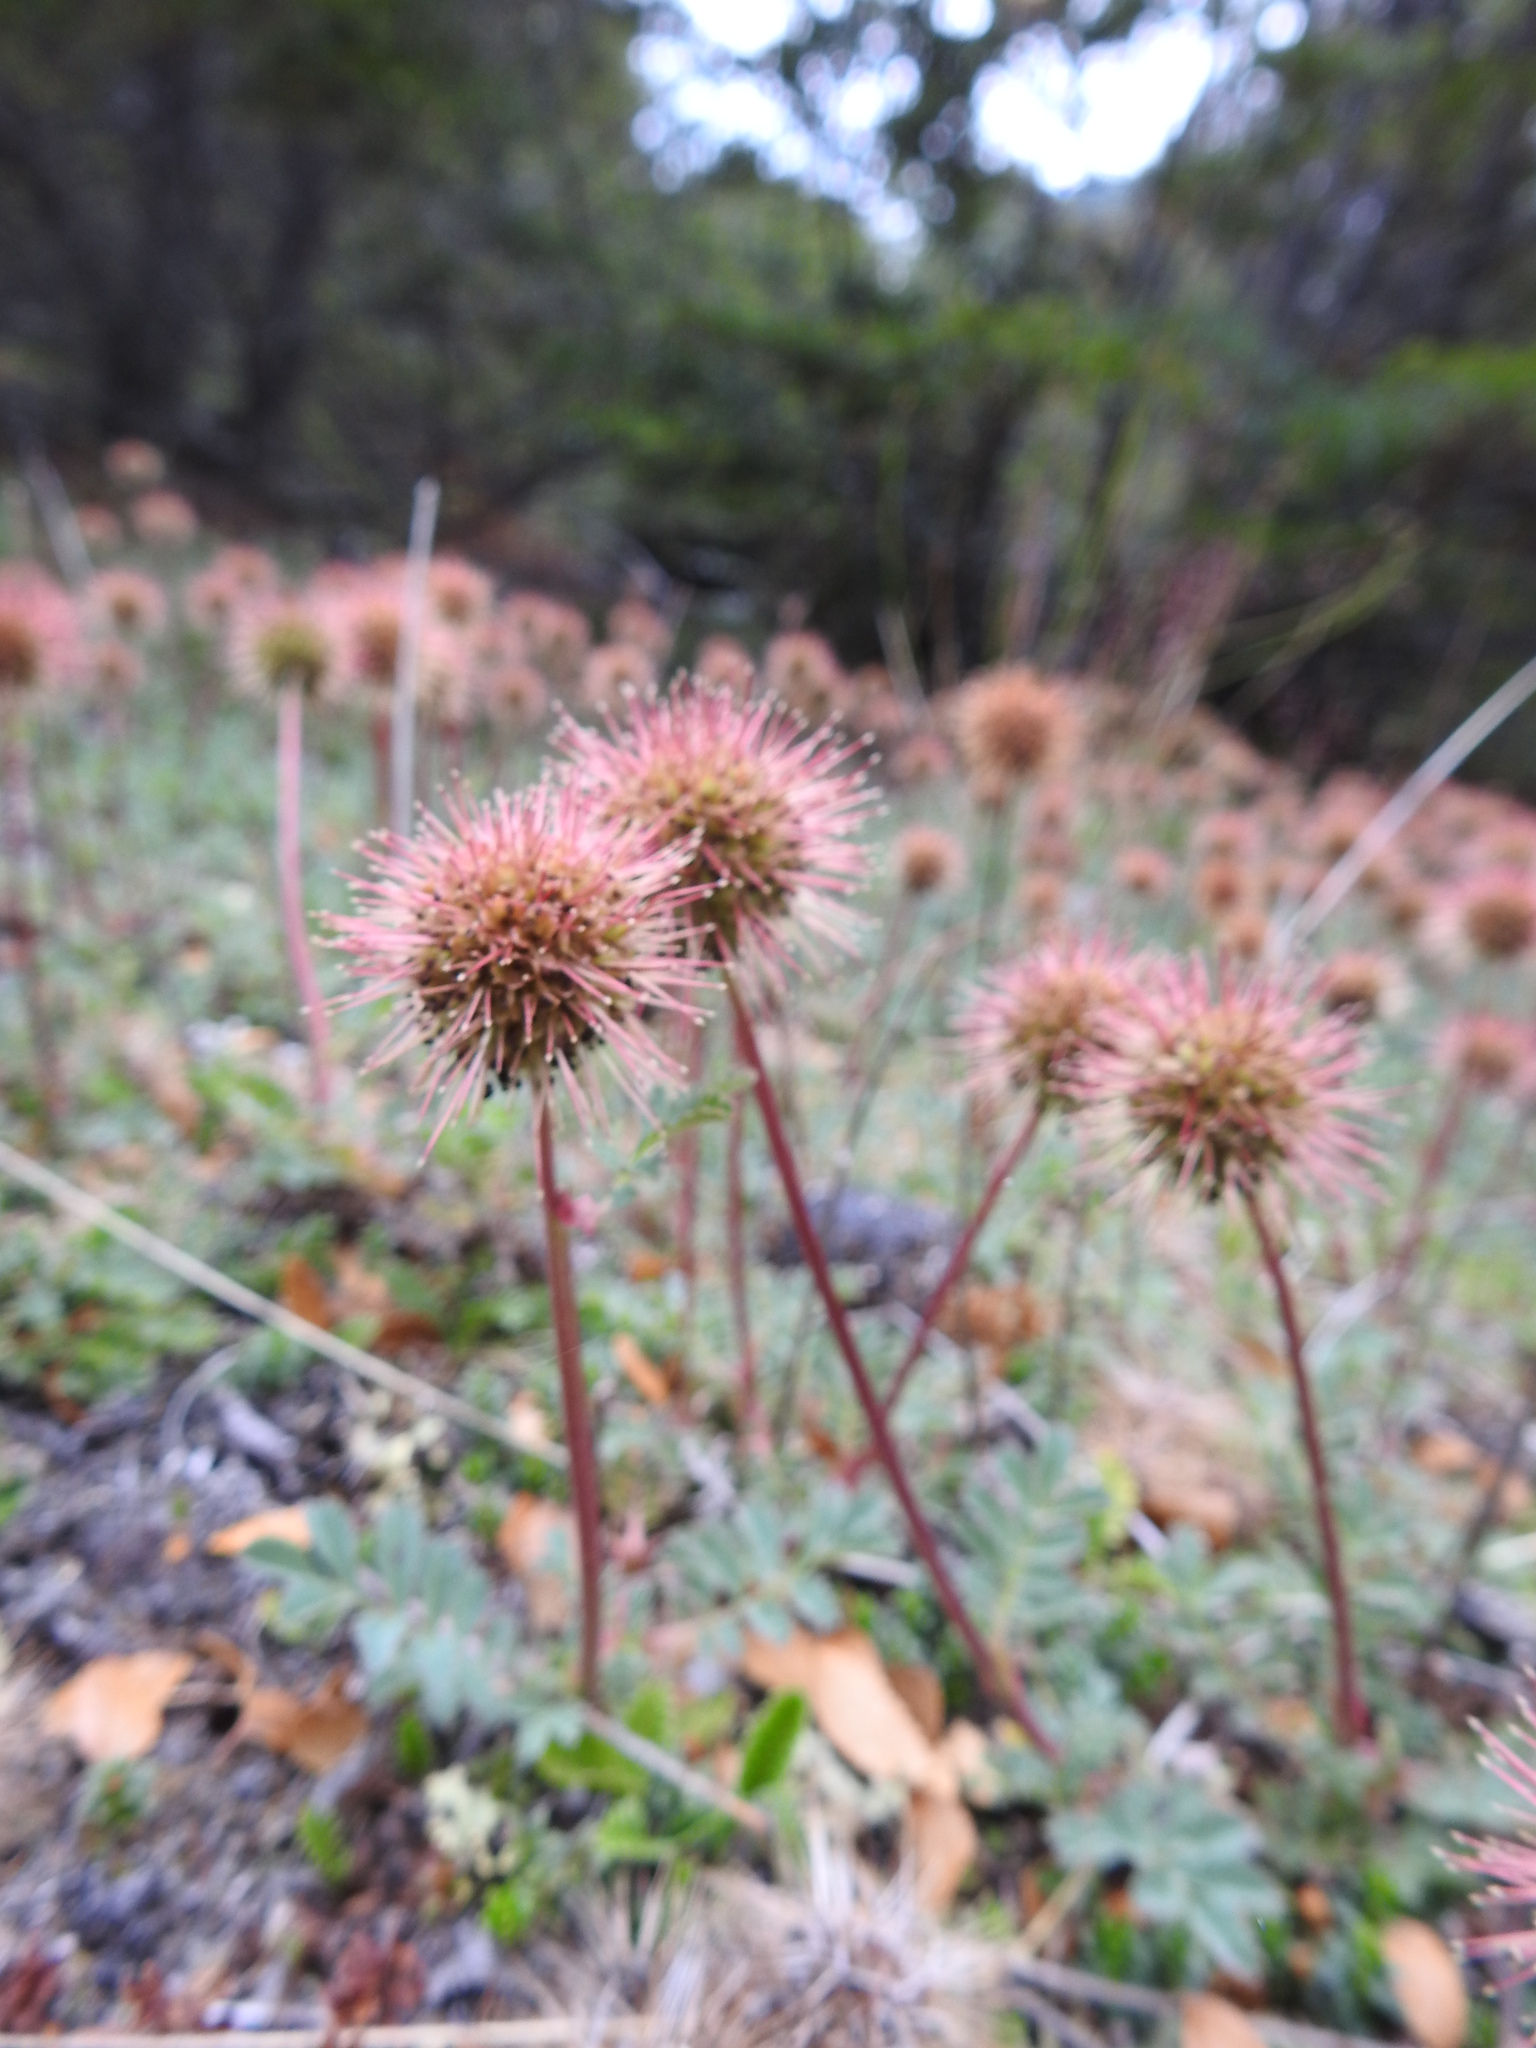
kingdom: Plantae
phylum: Tracheophyta
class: Magnoliopsida
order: Rosales
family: Rosaceae
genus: Acaena
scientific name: Acaena magellanica
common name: New zealand burr
